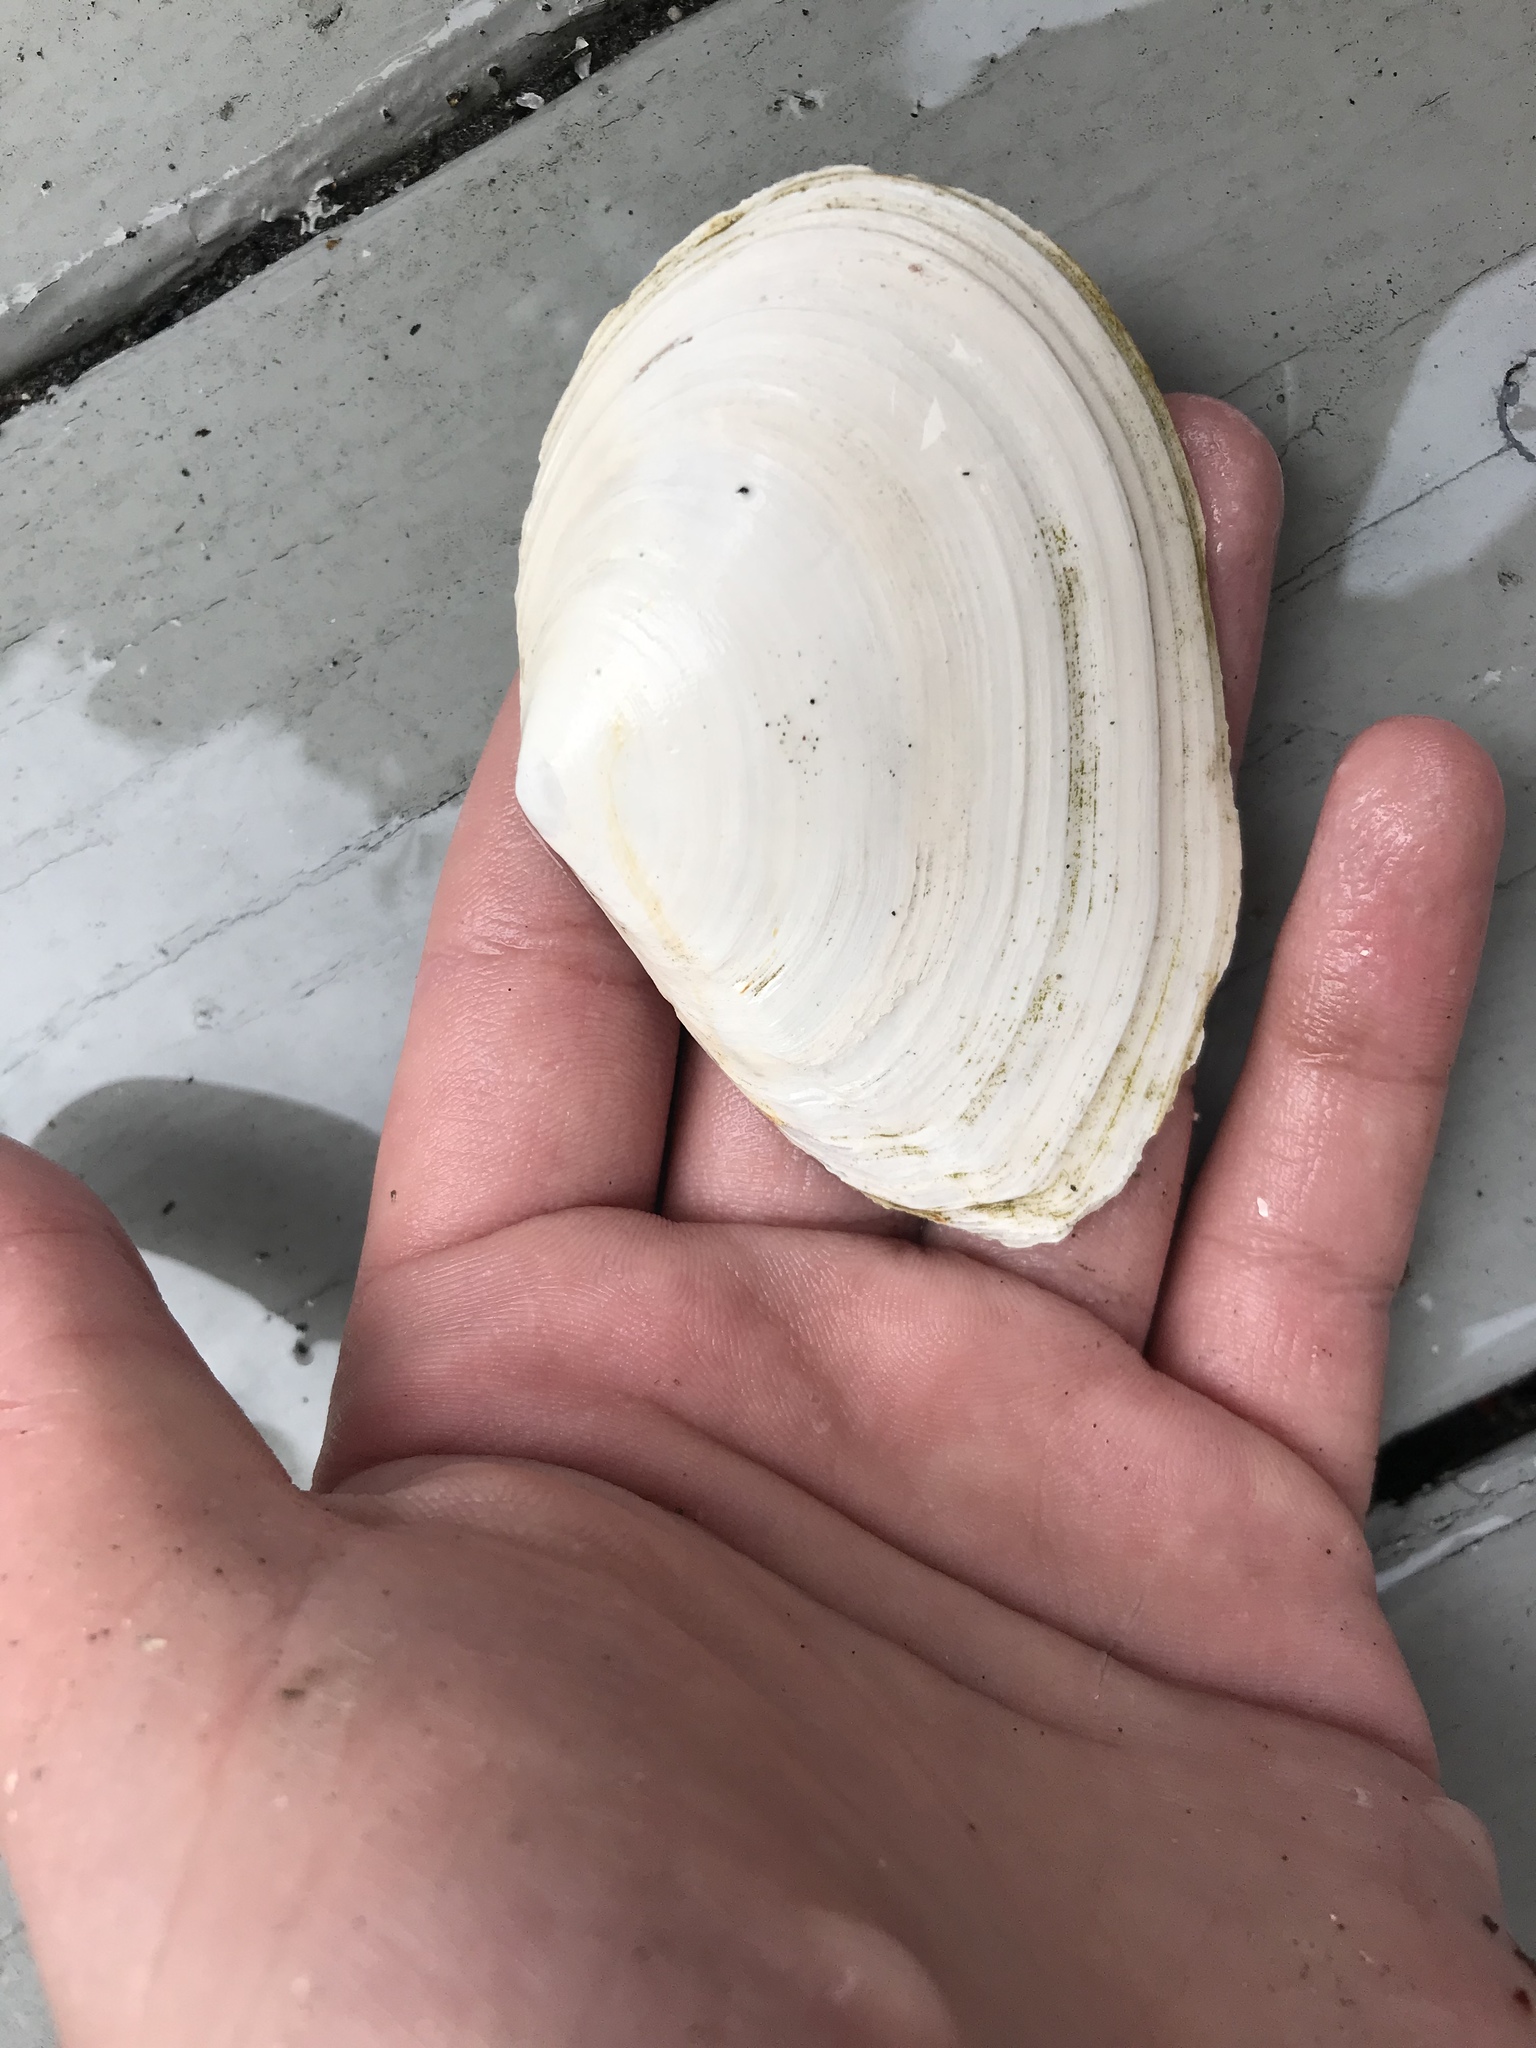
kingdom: Animalia
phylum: Mollusca
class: Bivalvia
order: Cardiida
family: Tellinidae
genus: Macoma
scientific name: Macoma nasuta
